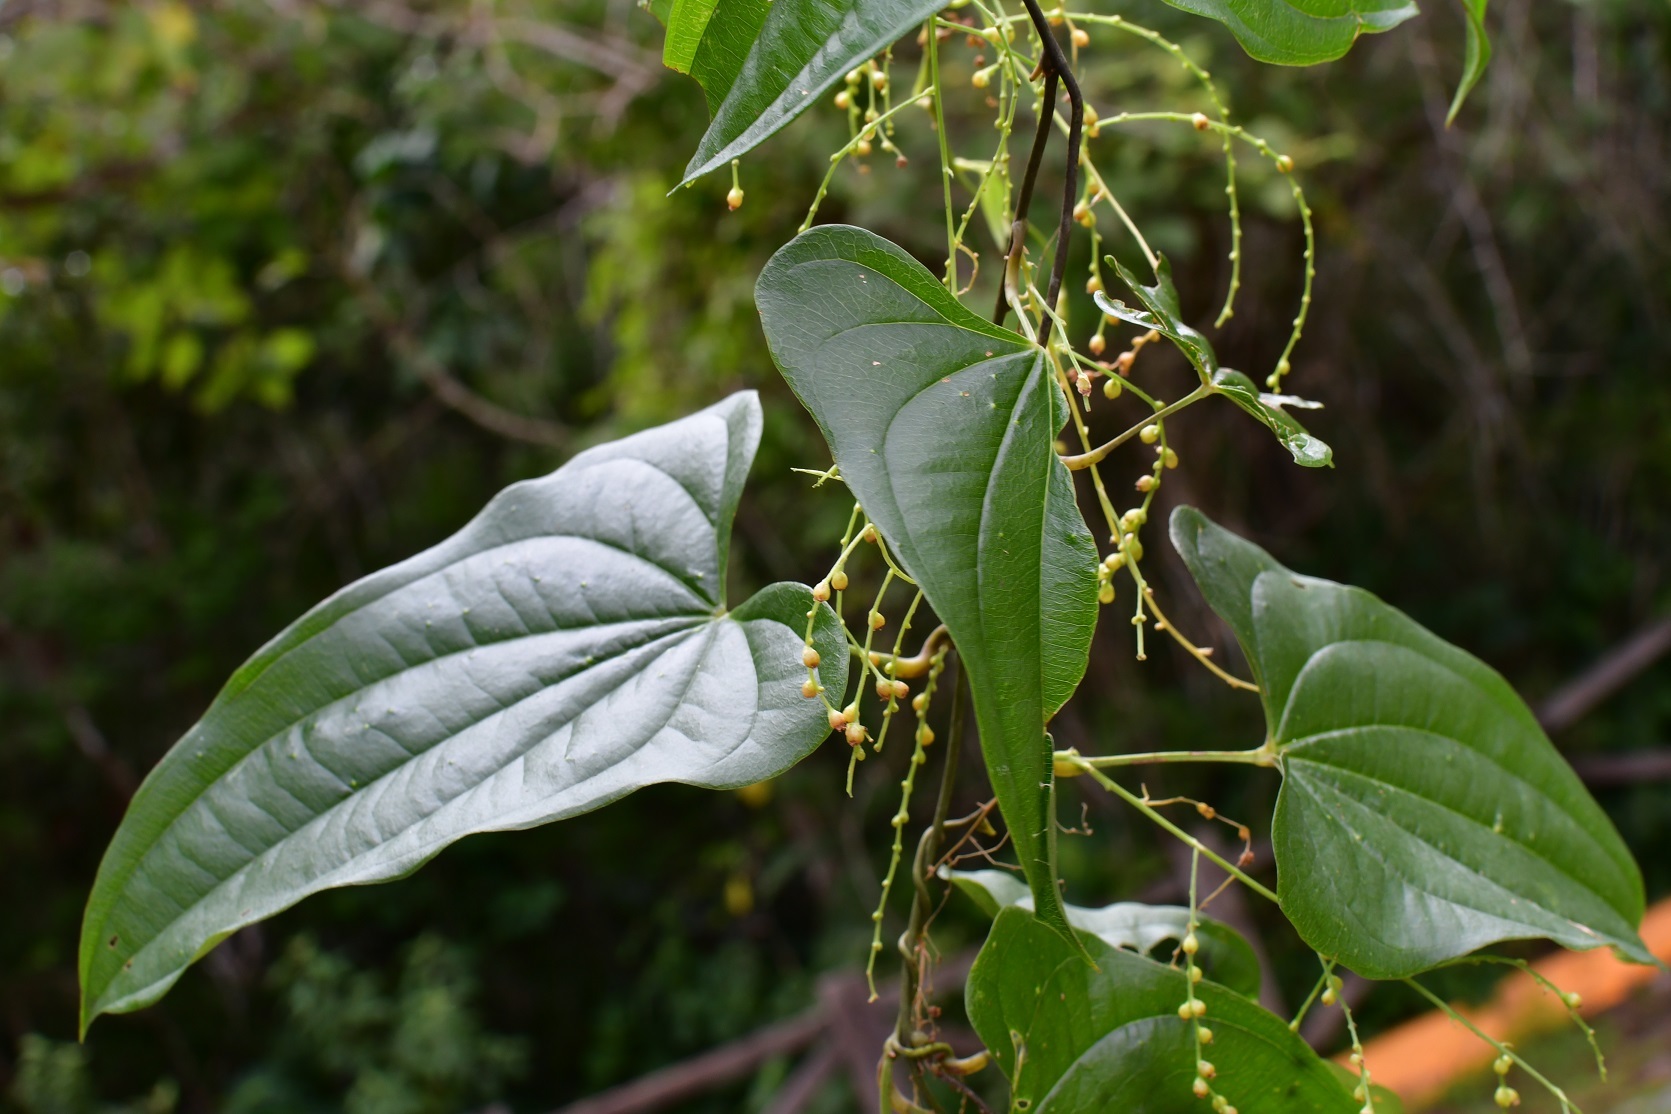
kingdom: Plantae
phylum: Tracheophyta
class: Liliopsida
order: Dioscoreales
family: Dioscoreaceae
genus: Dioscorea
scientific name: Dioscorea spiculiflora
